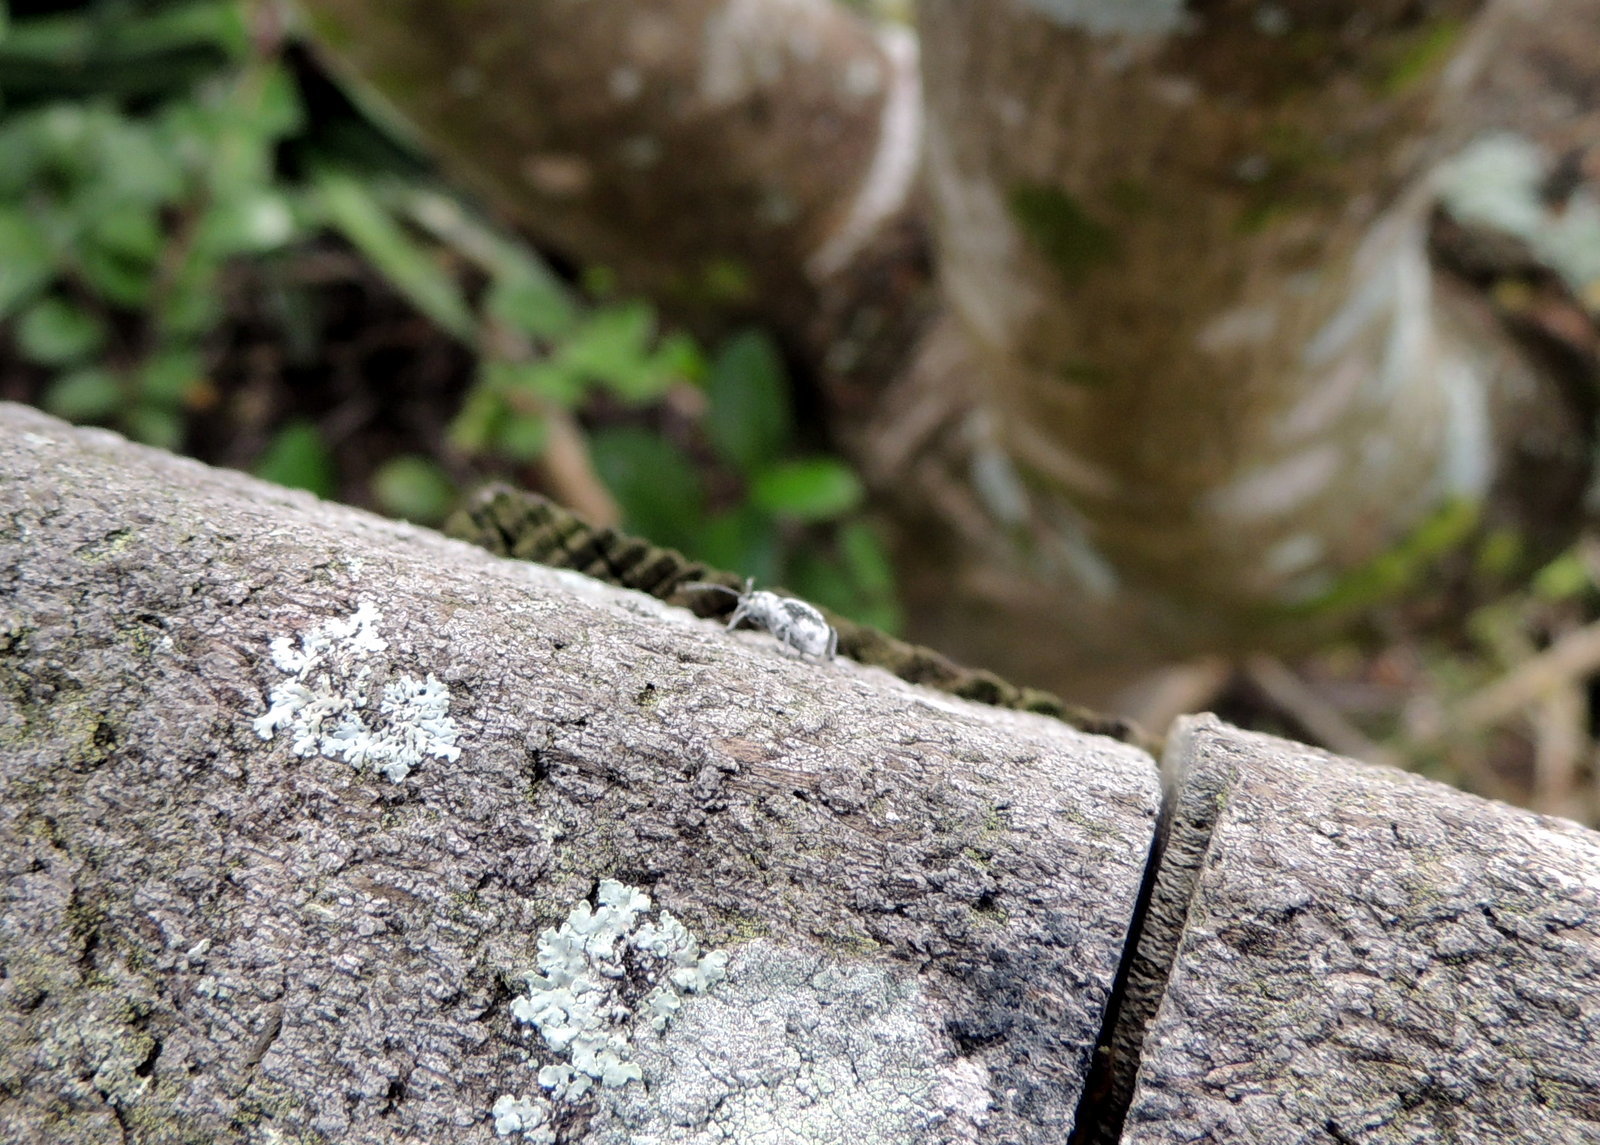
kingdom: Animalia
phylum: Arthropoda
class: Insecta
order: Coleoptera
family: Curculionidae
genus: Myllocerus
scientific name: Myllocerus undecimpustulatus
